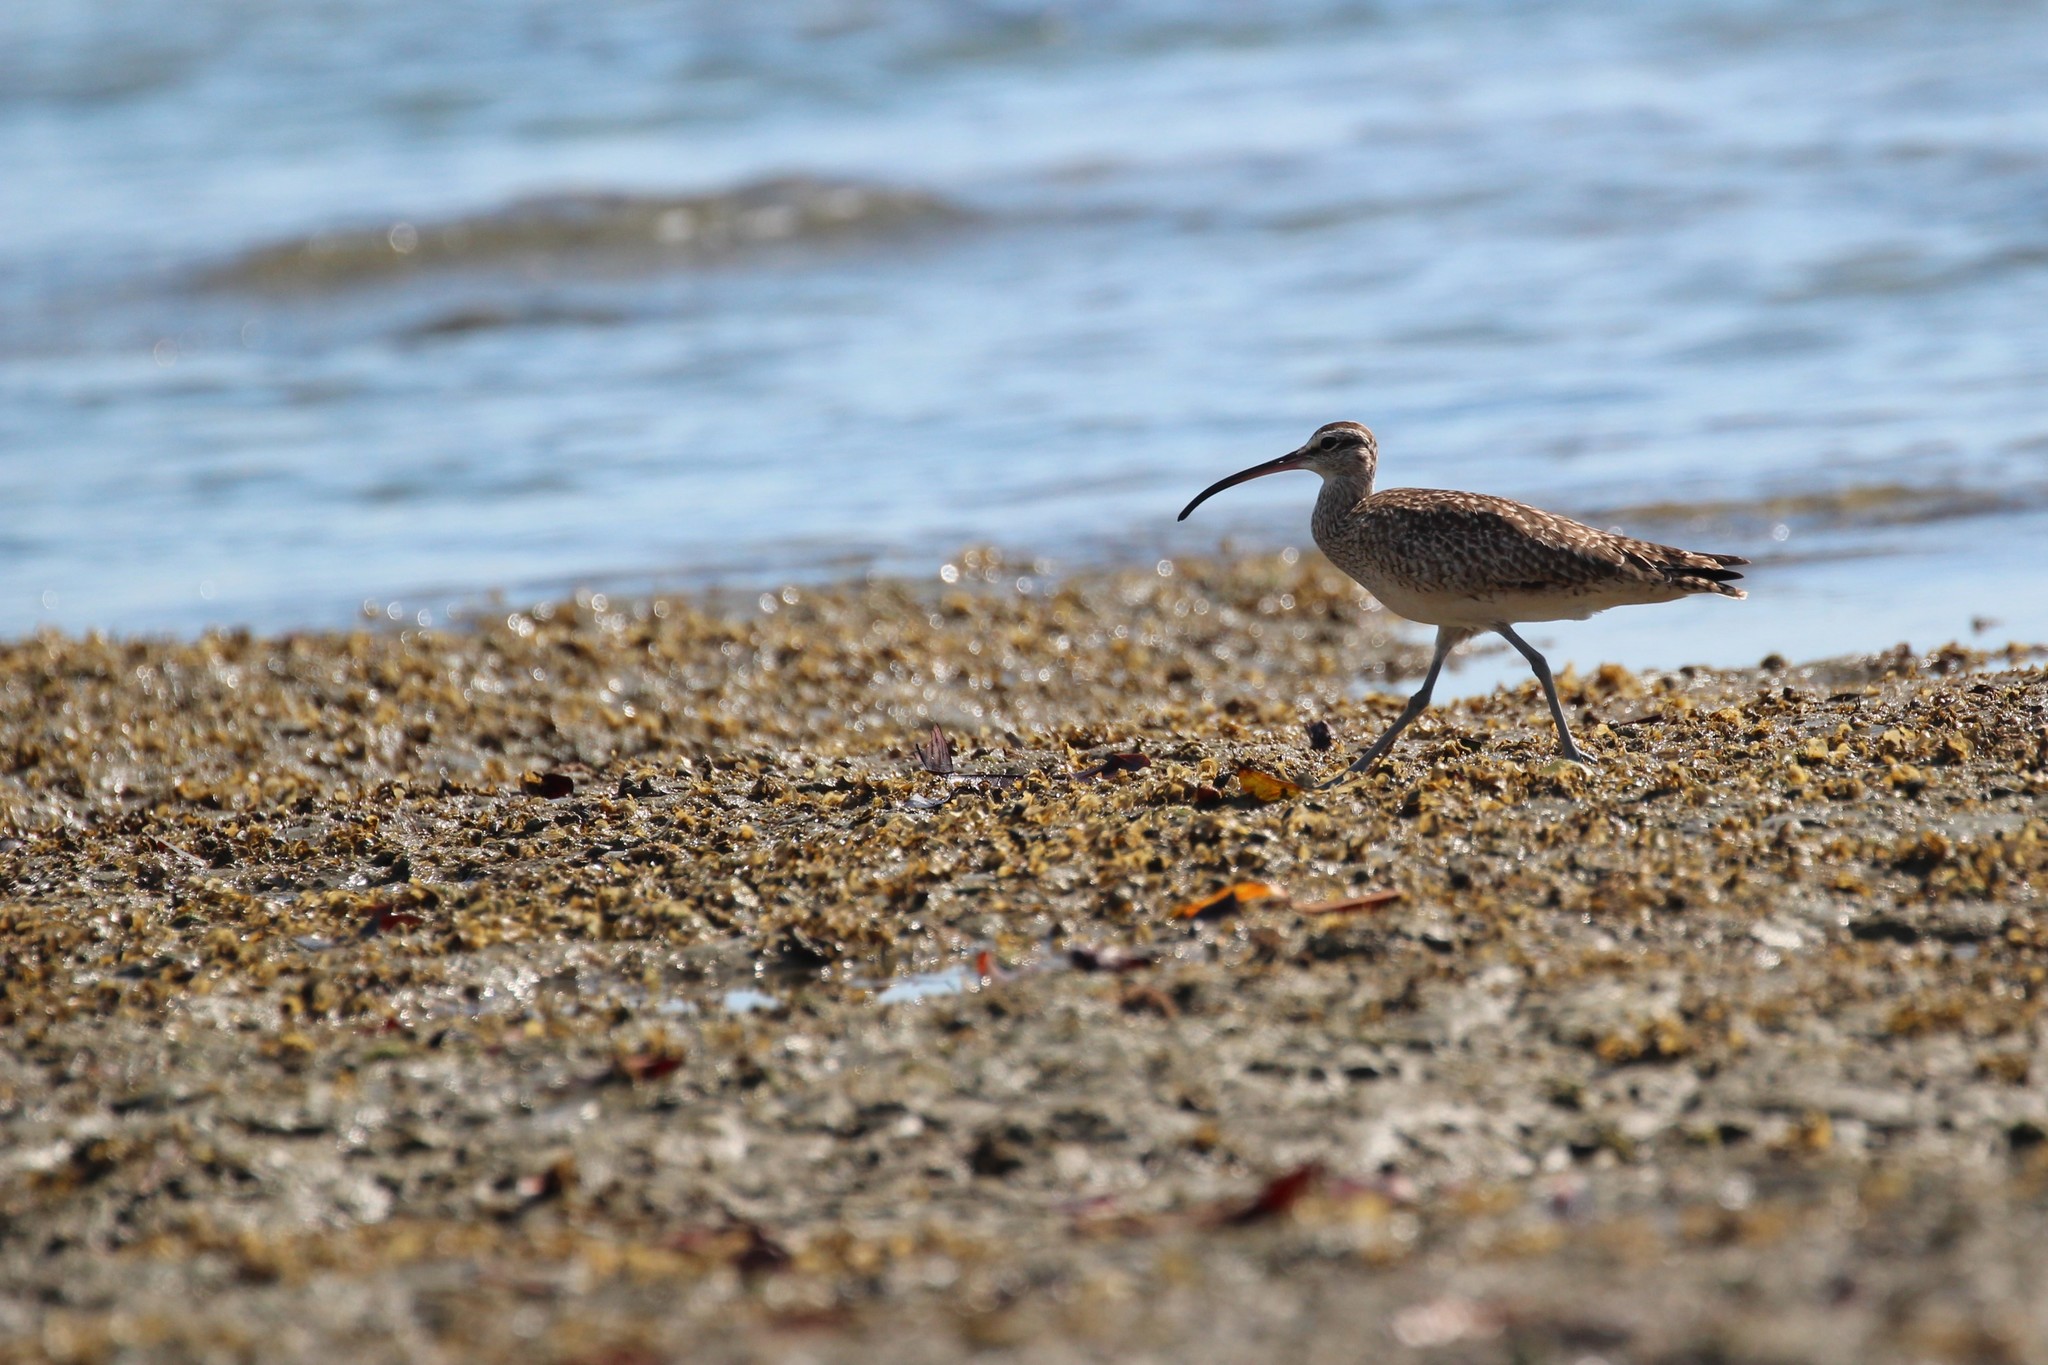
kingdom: Animalia
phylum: Chordata
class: Aves
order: Charadriiformes
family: Scolopacidae
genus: Numenius
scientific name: Numenius phaeopus
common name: Whimbrel
